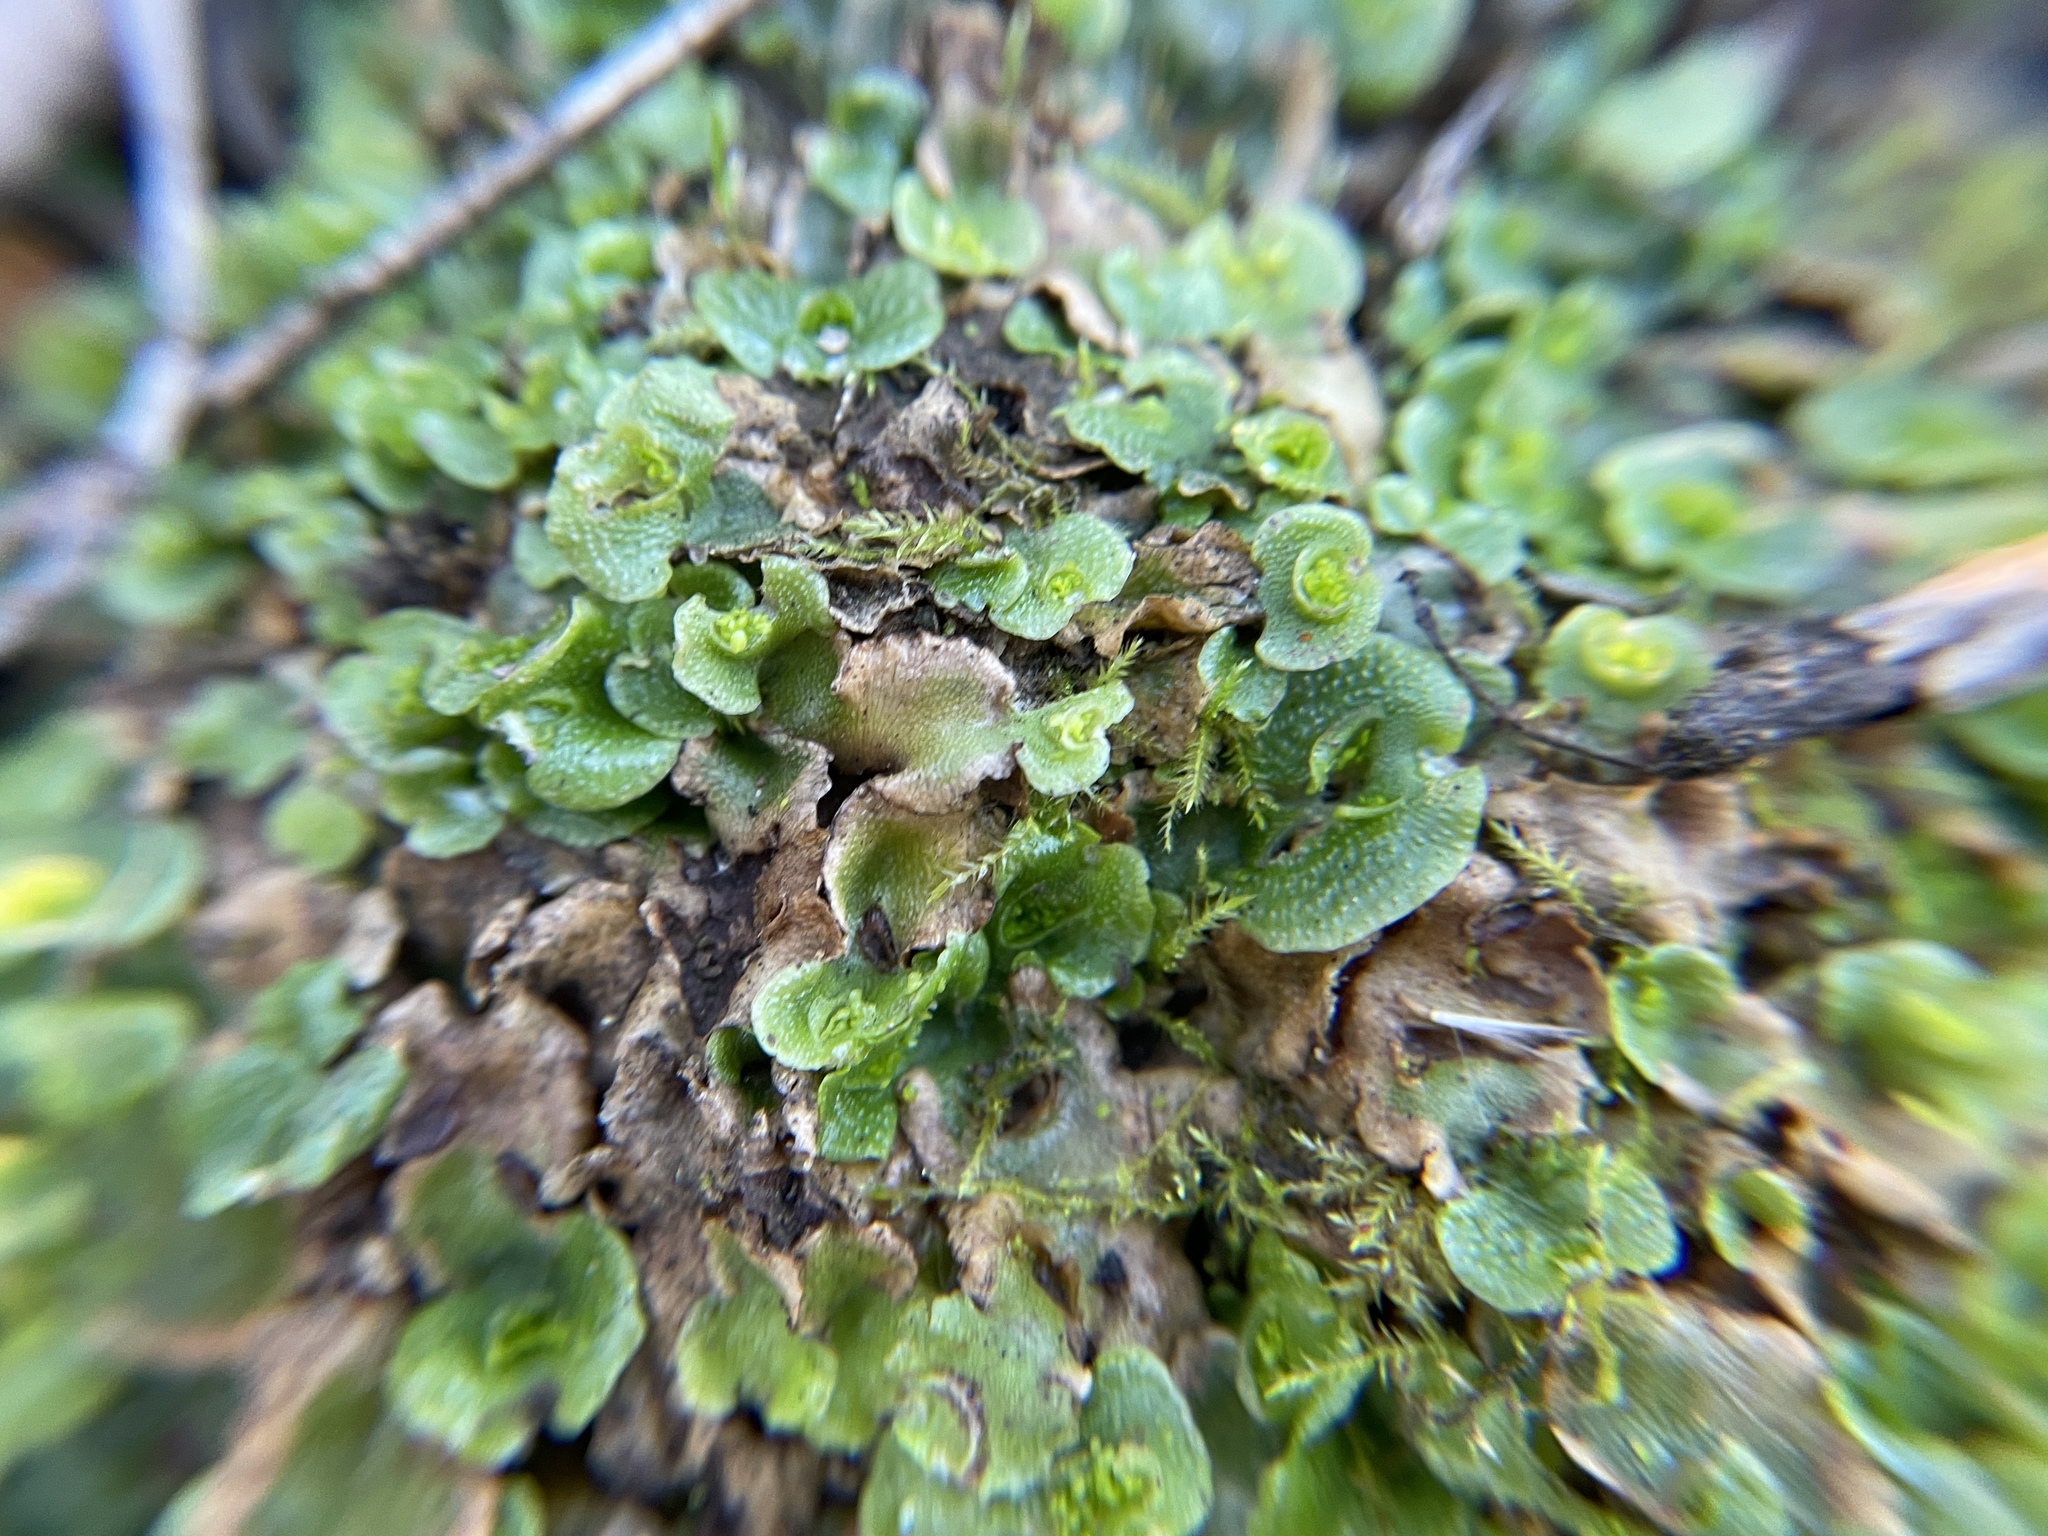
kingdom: Plantae
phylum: Marchantiophyta
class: Marchantiopsida
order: Lunulariales
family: Lunulariaceae
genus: Lunularia
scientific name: Lunularia cruciata
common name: Crescent-cup liverwort
